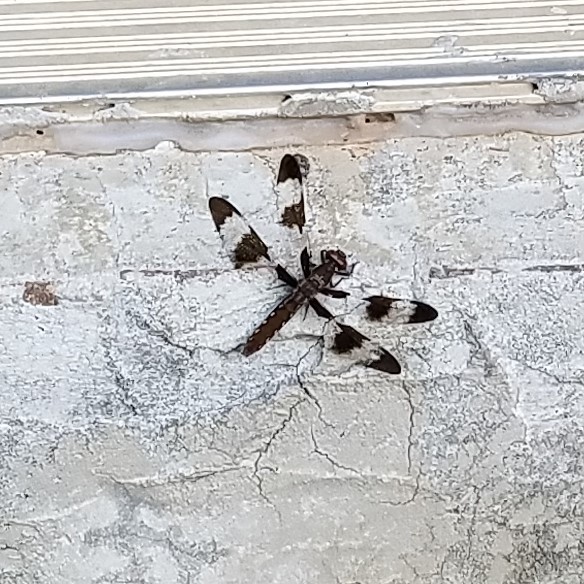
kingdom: Animalia
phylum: Arthropoda
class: Insecta
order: Odonata
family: Libellulidae
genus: Plathemis
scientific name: Plathemis lydia
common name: Common whitetail
